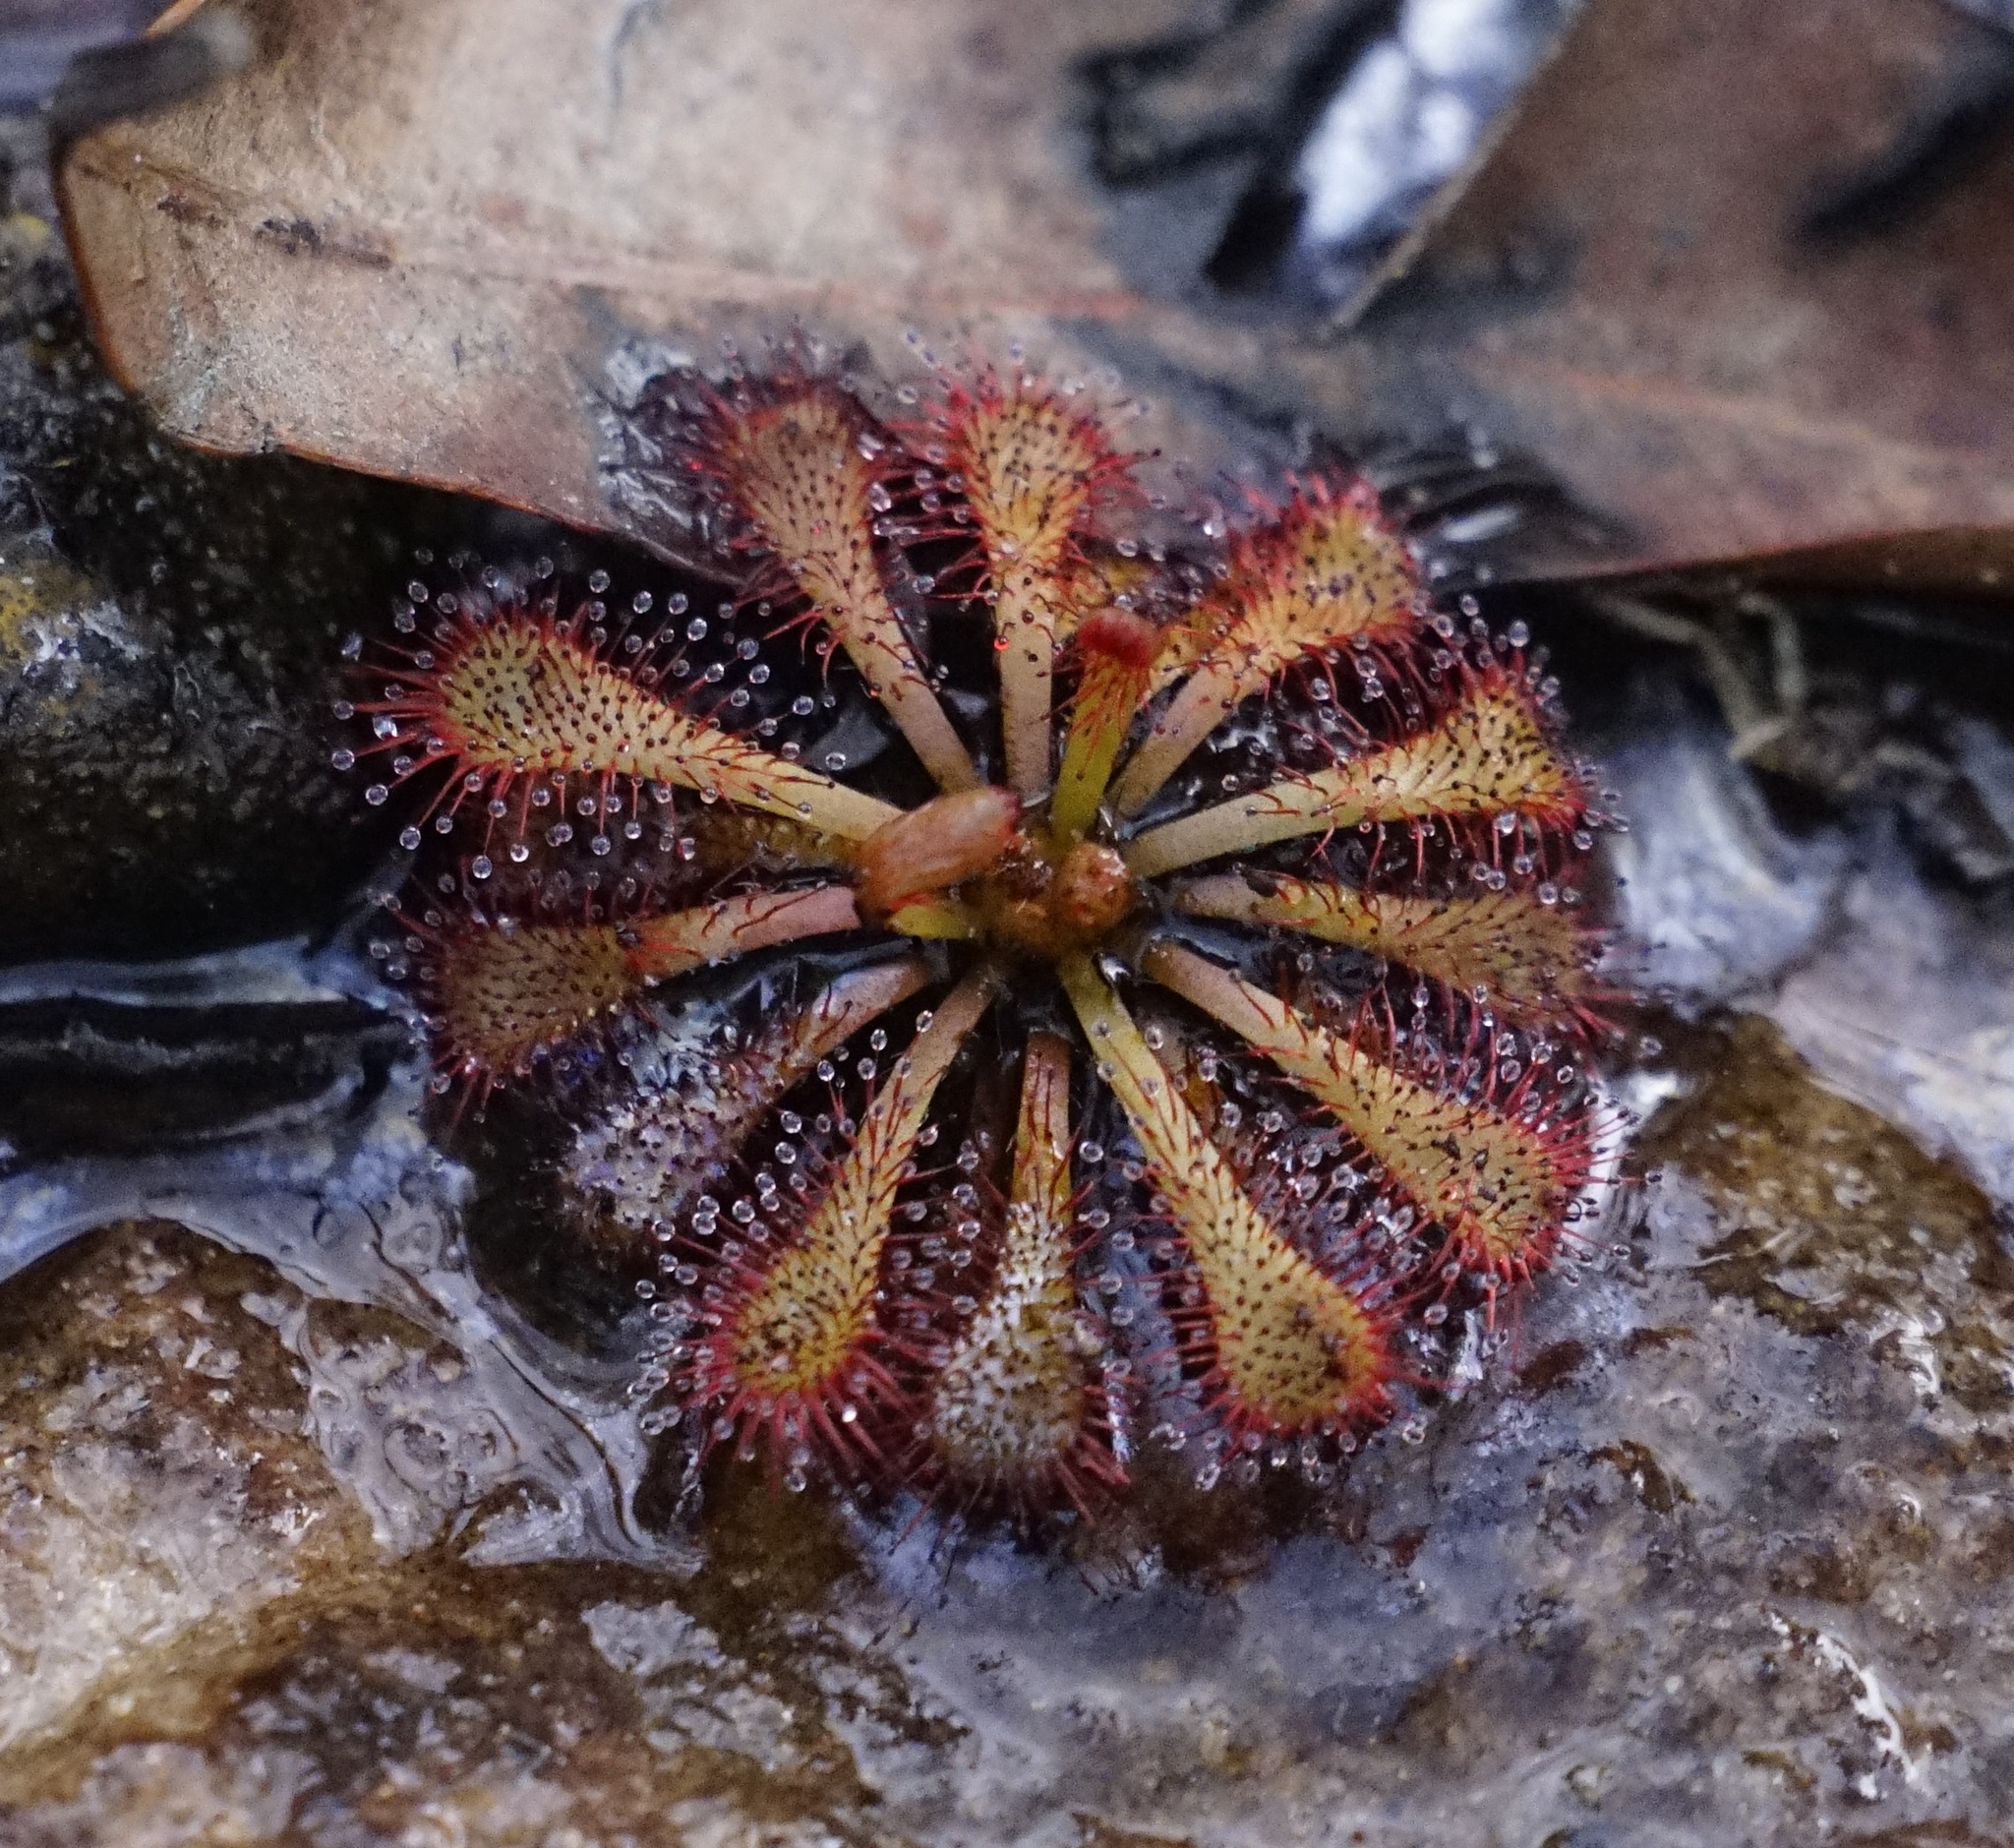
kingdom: Plantae
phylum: Tracheophyta
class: Magnoliopsida
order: Caryophyllales
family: Droseraceae
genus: Drosera
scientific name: Drosera spatulata
